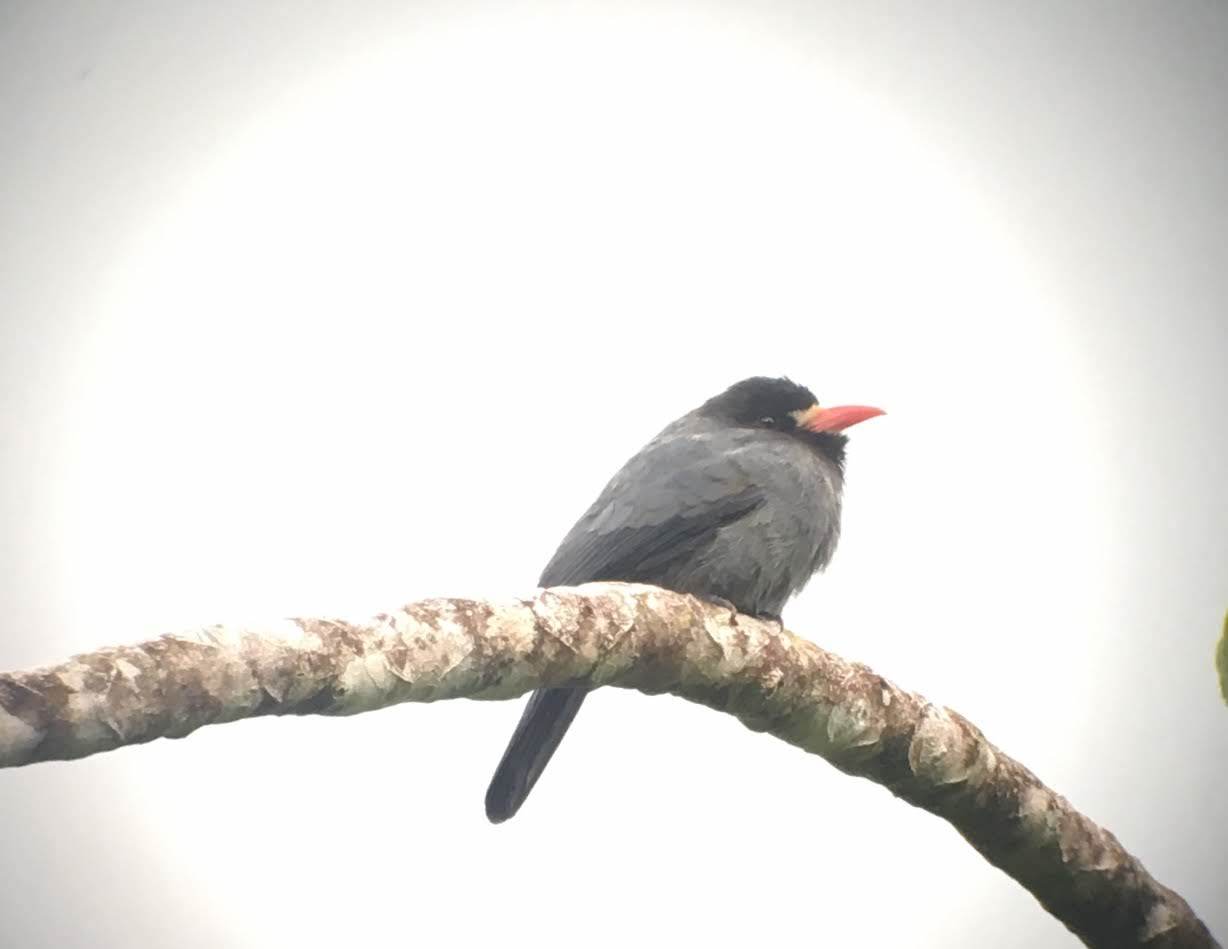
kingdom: Animalia
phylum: Chordata
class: Aves
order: Piciformes
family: Bucconidae
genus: Monasa
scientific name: Monasa morphoeus
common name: White-fronted nunbird
